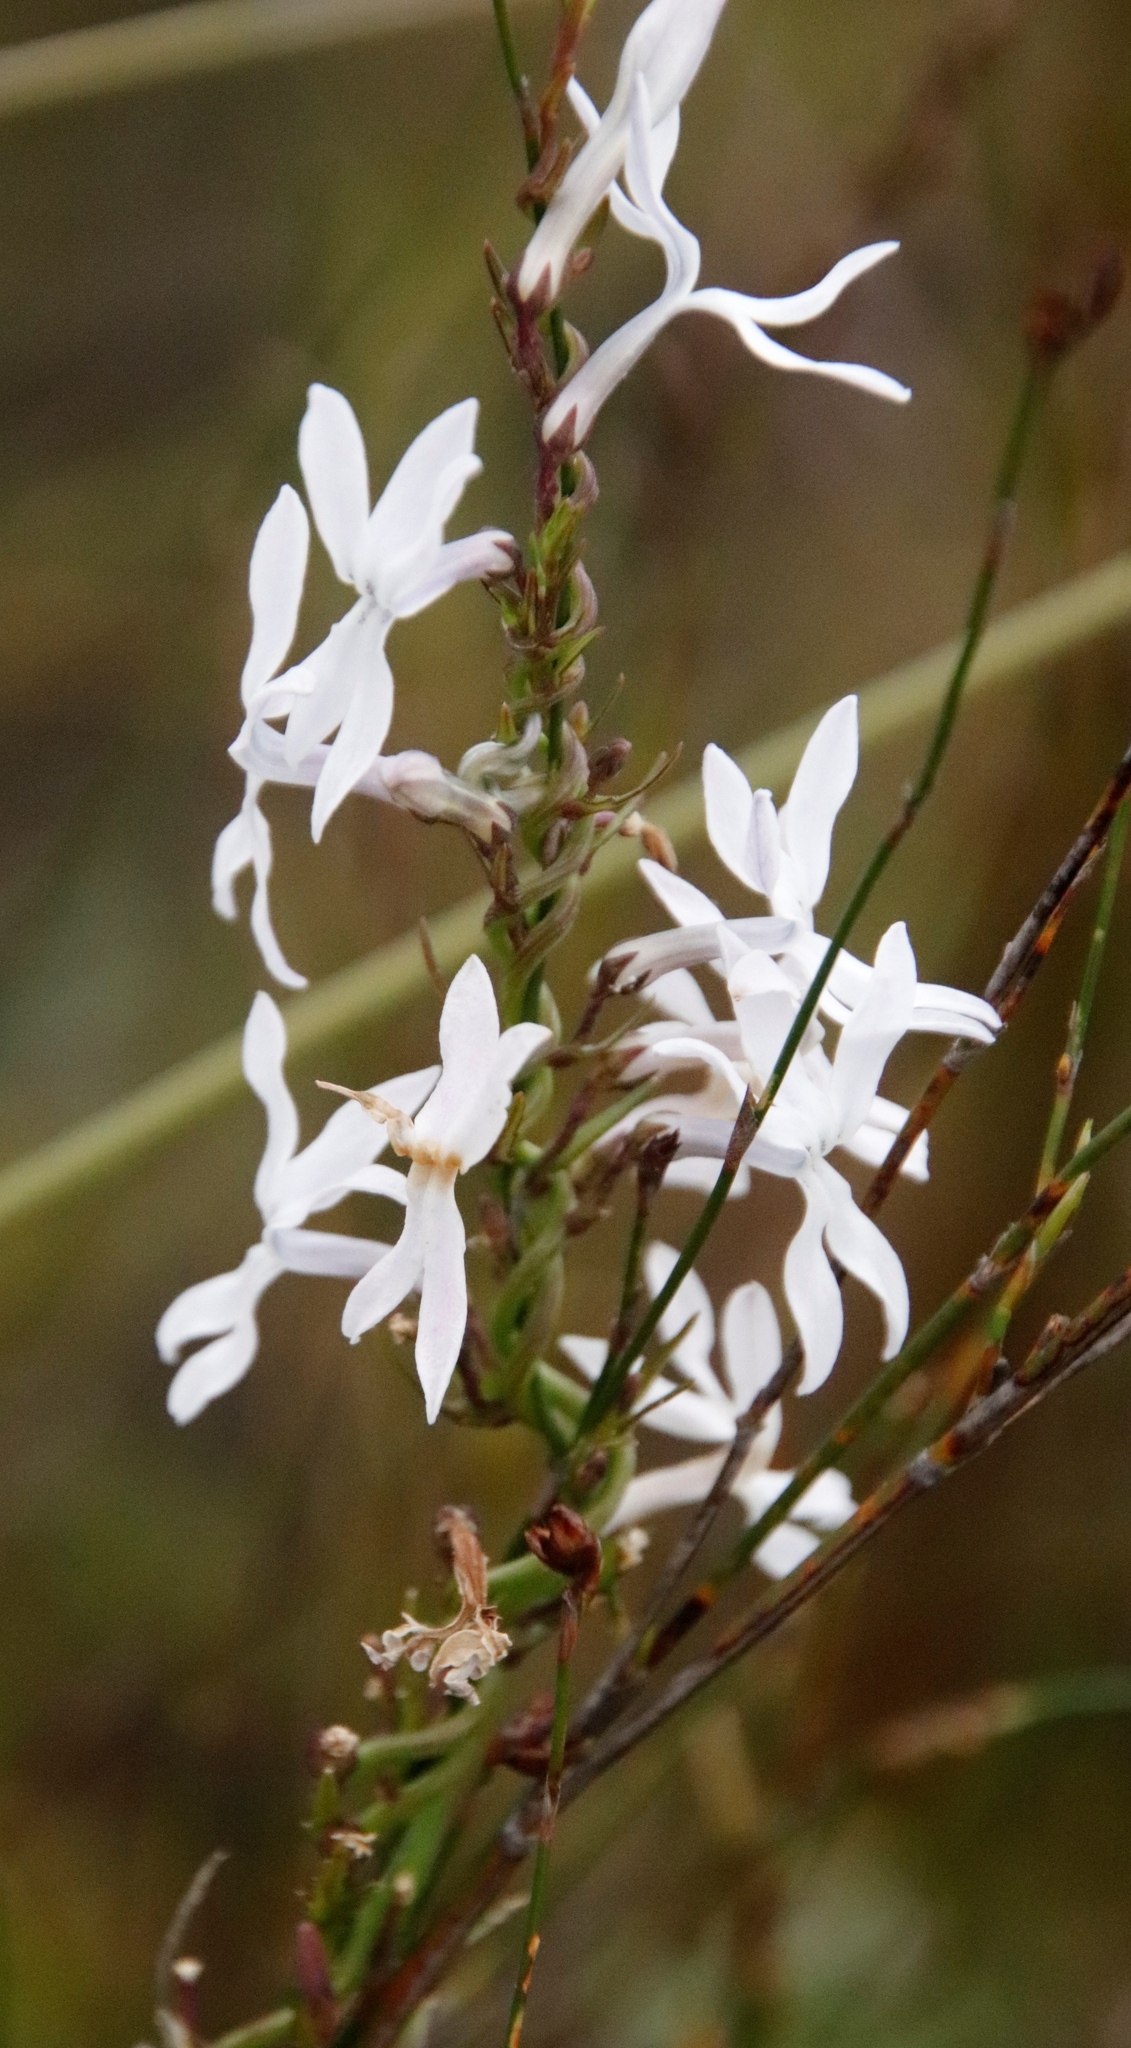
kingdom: Plantae
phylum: Tracheophyta
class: Magnoliopsida
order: Asterales
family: Campanulaceae
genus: Cyphia
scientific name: Cyphia volubilis
